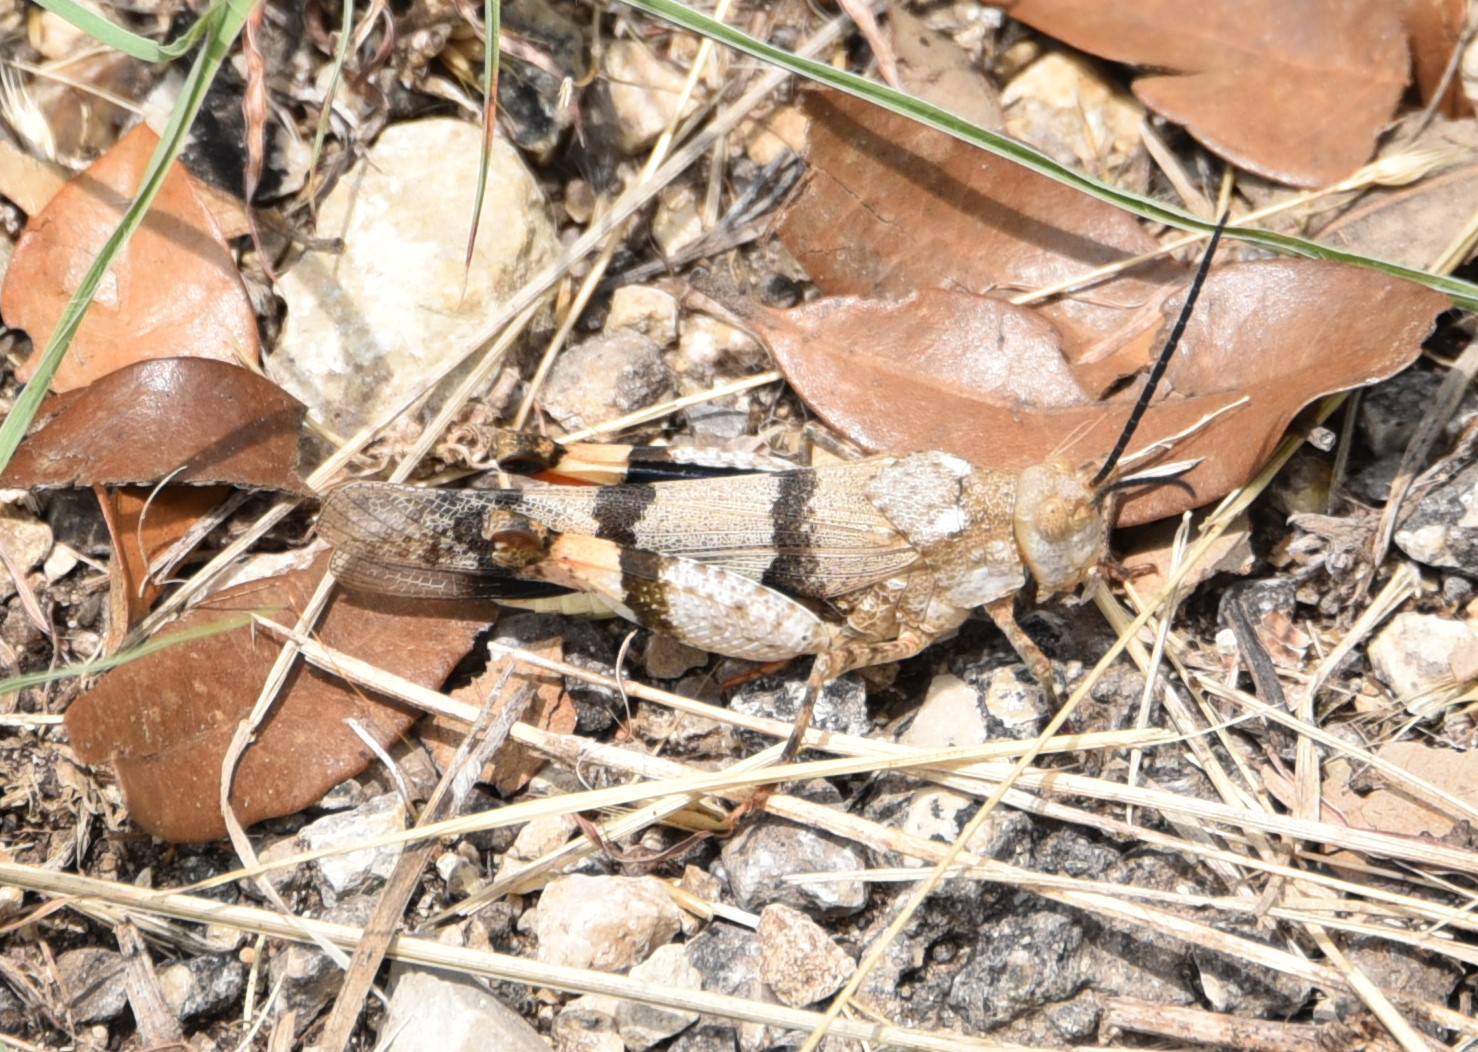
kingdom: Animalia
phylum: Arthropoda
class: Insecta
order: Orthoptera
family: Acrididae
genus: Hadrotettix
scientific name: Hadrotettix trifasciatus
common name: Threebanded grasshopper
